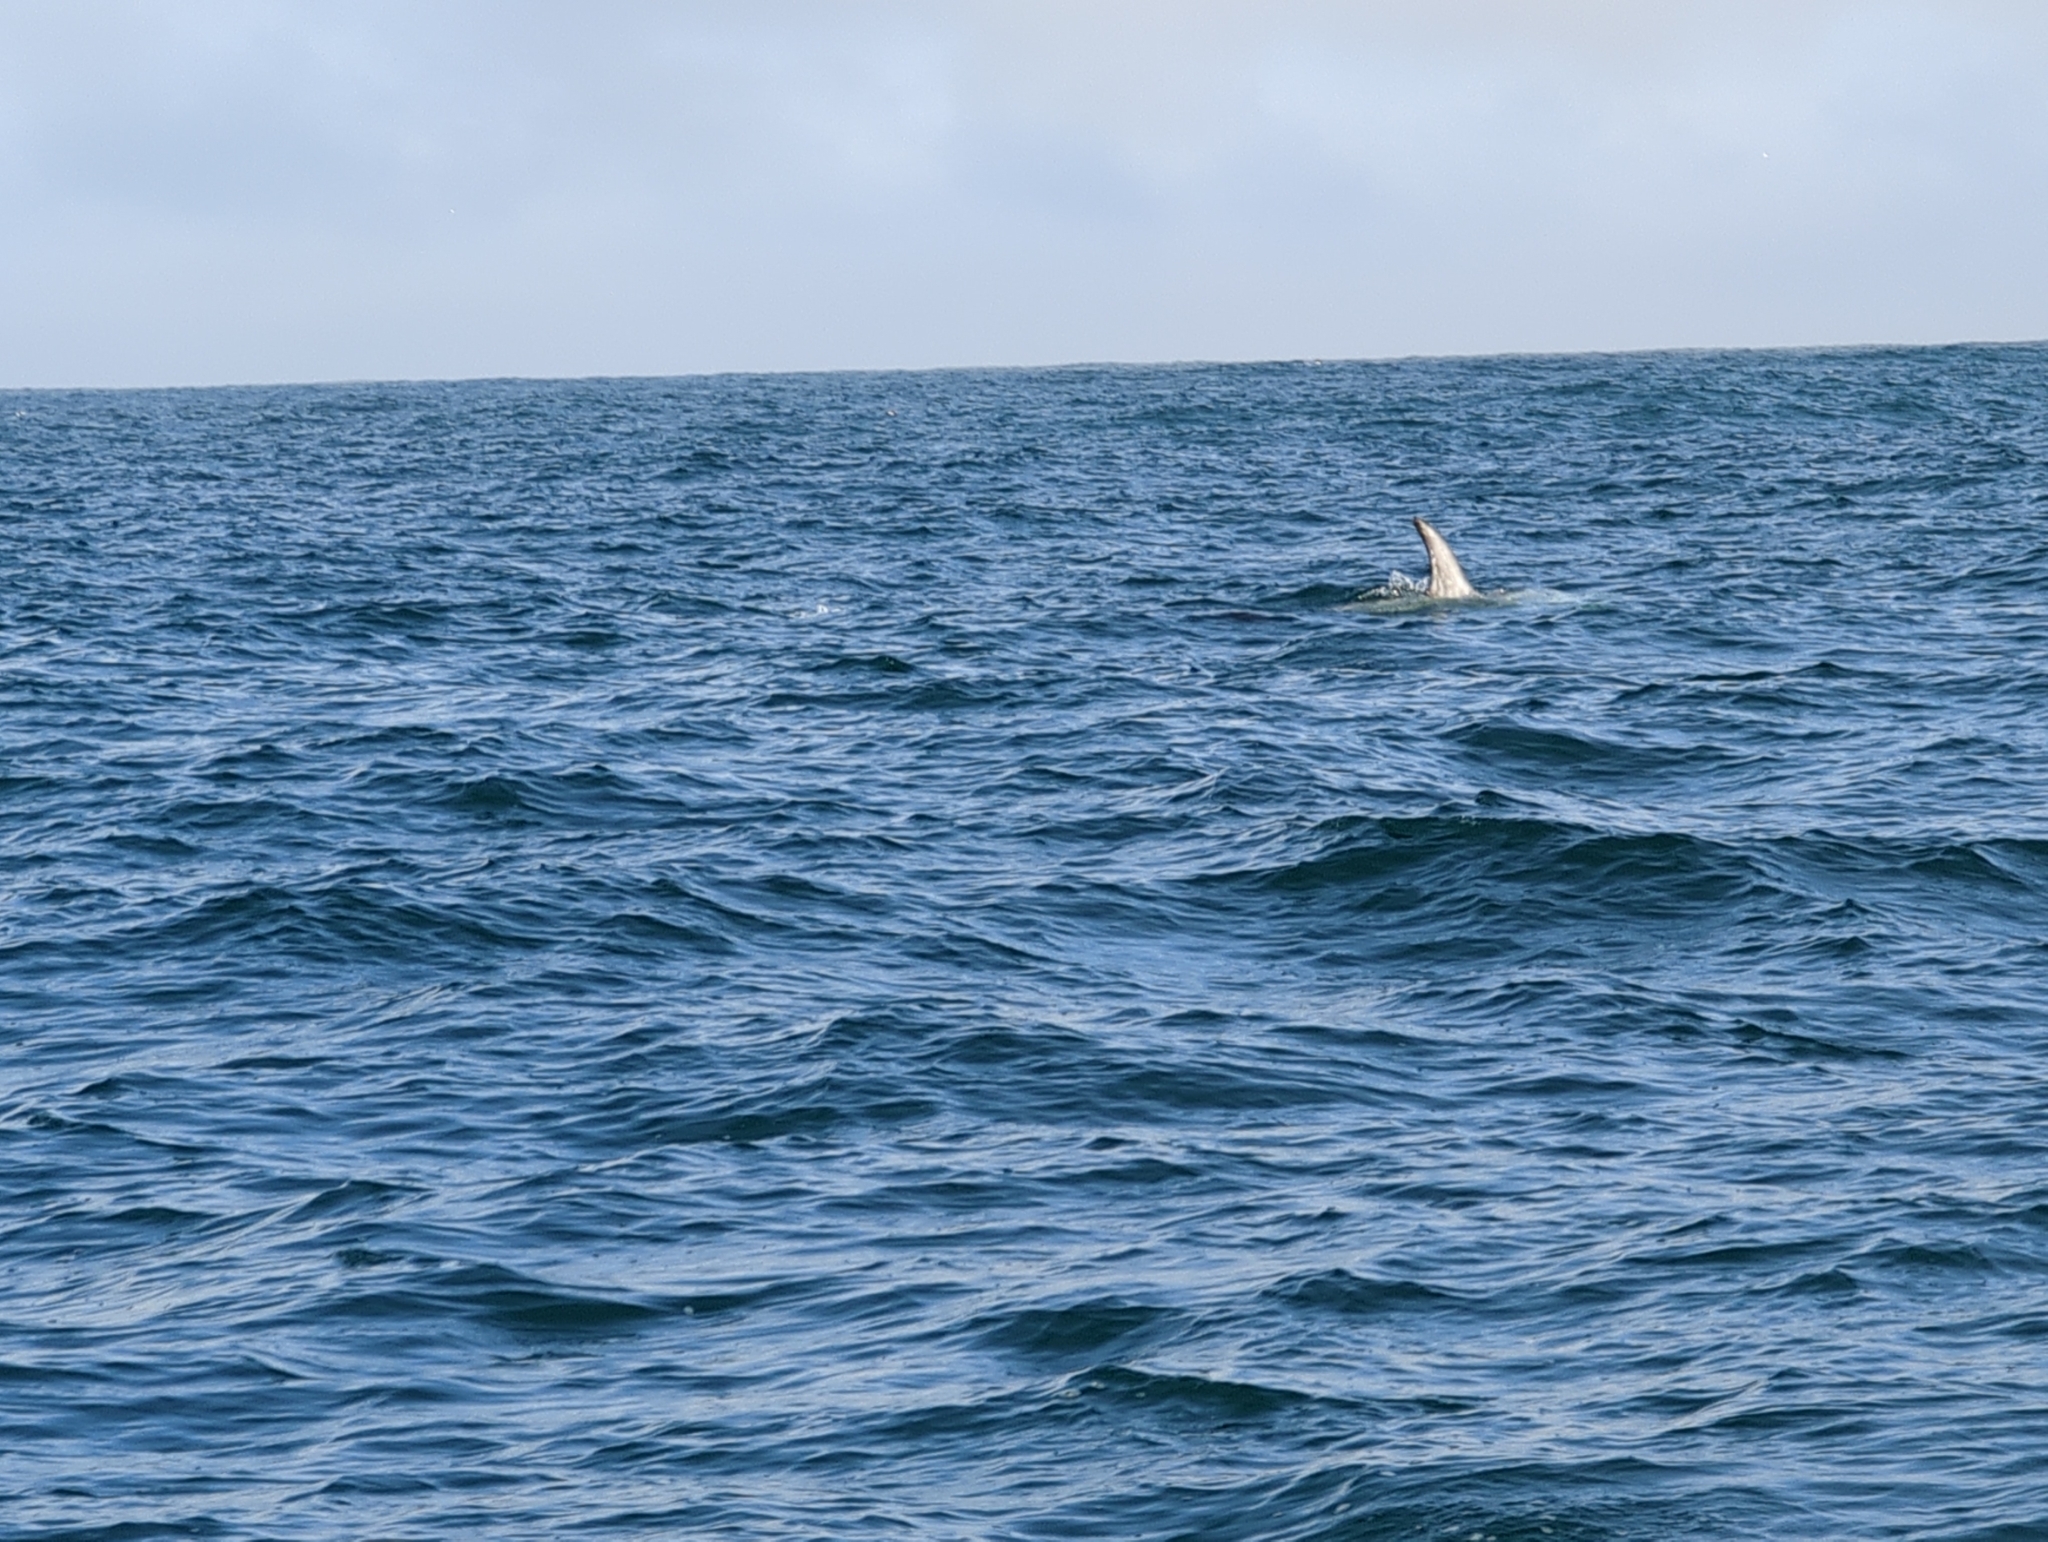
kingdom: Animalia
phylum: Chordata
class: Mammalia
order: Cetacea
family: Delphinidae
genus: Grampus
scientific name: Grampus griseus
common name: Risso's dolphin
